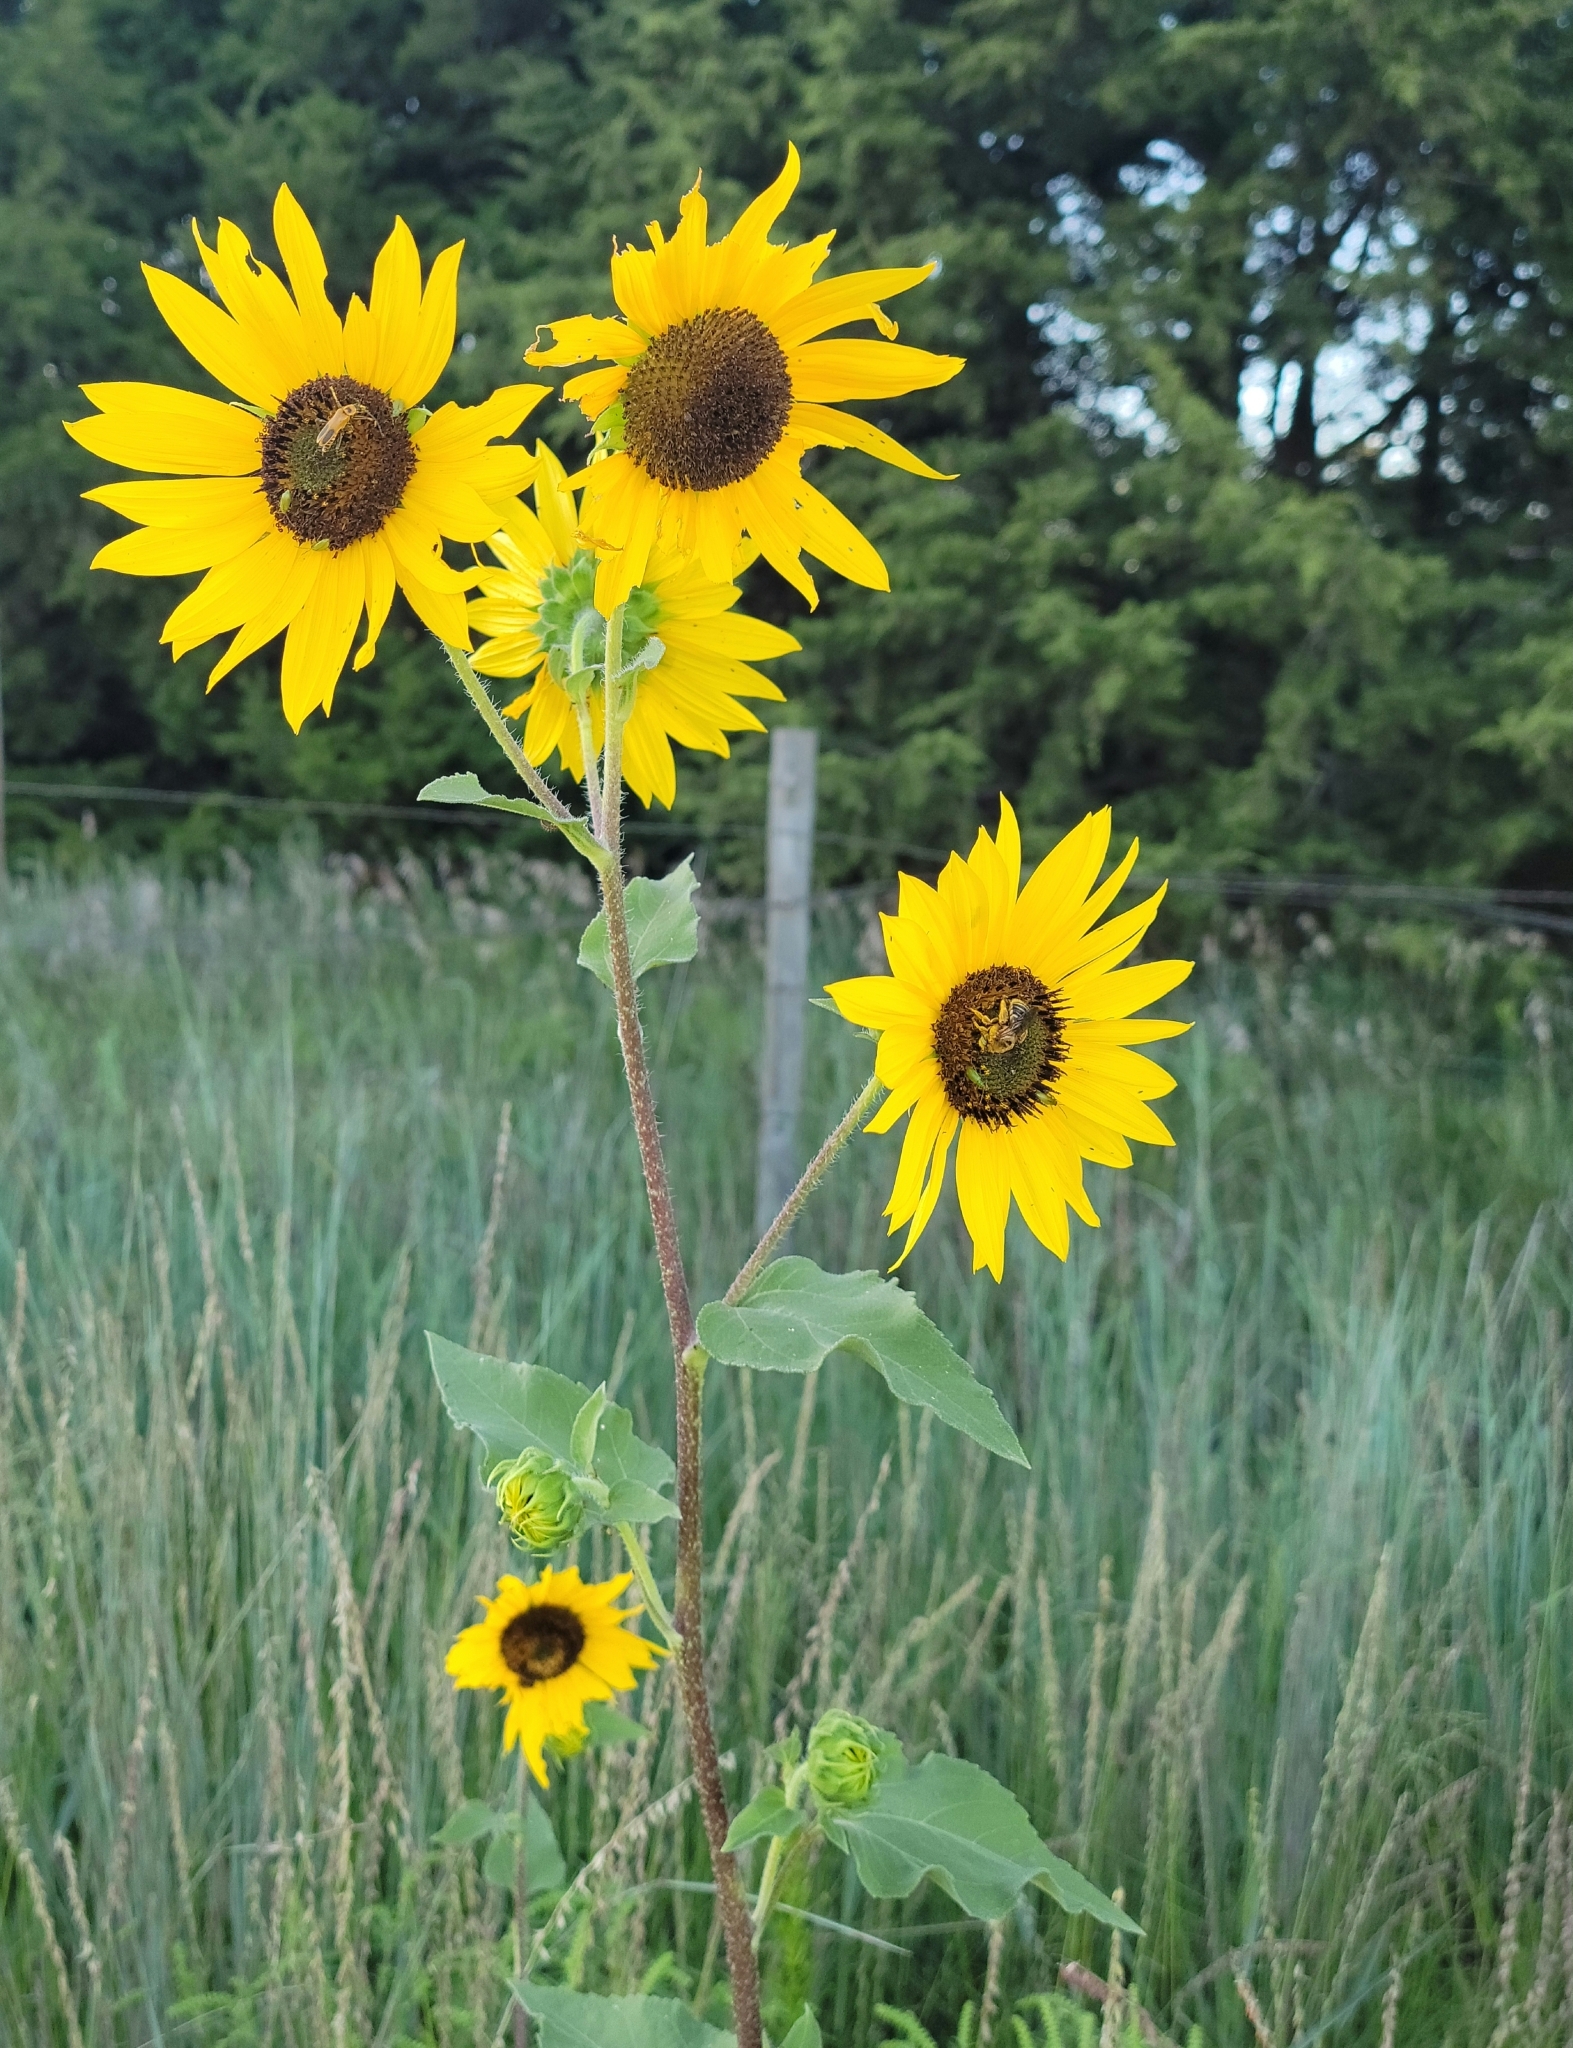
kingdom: Plantae
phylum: Tracheophyta
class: Magnoliopsida
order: Asterales
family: Asteraceae
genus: Helianthus
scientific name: Helianthus annuus
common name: Sunflower
